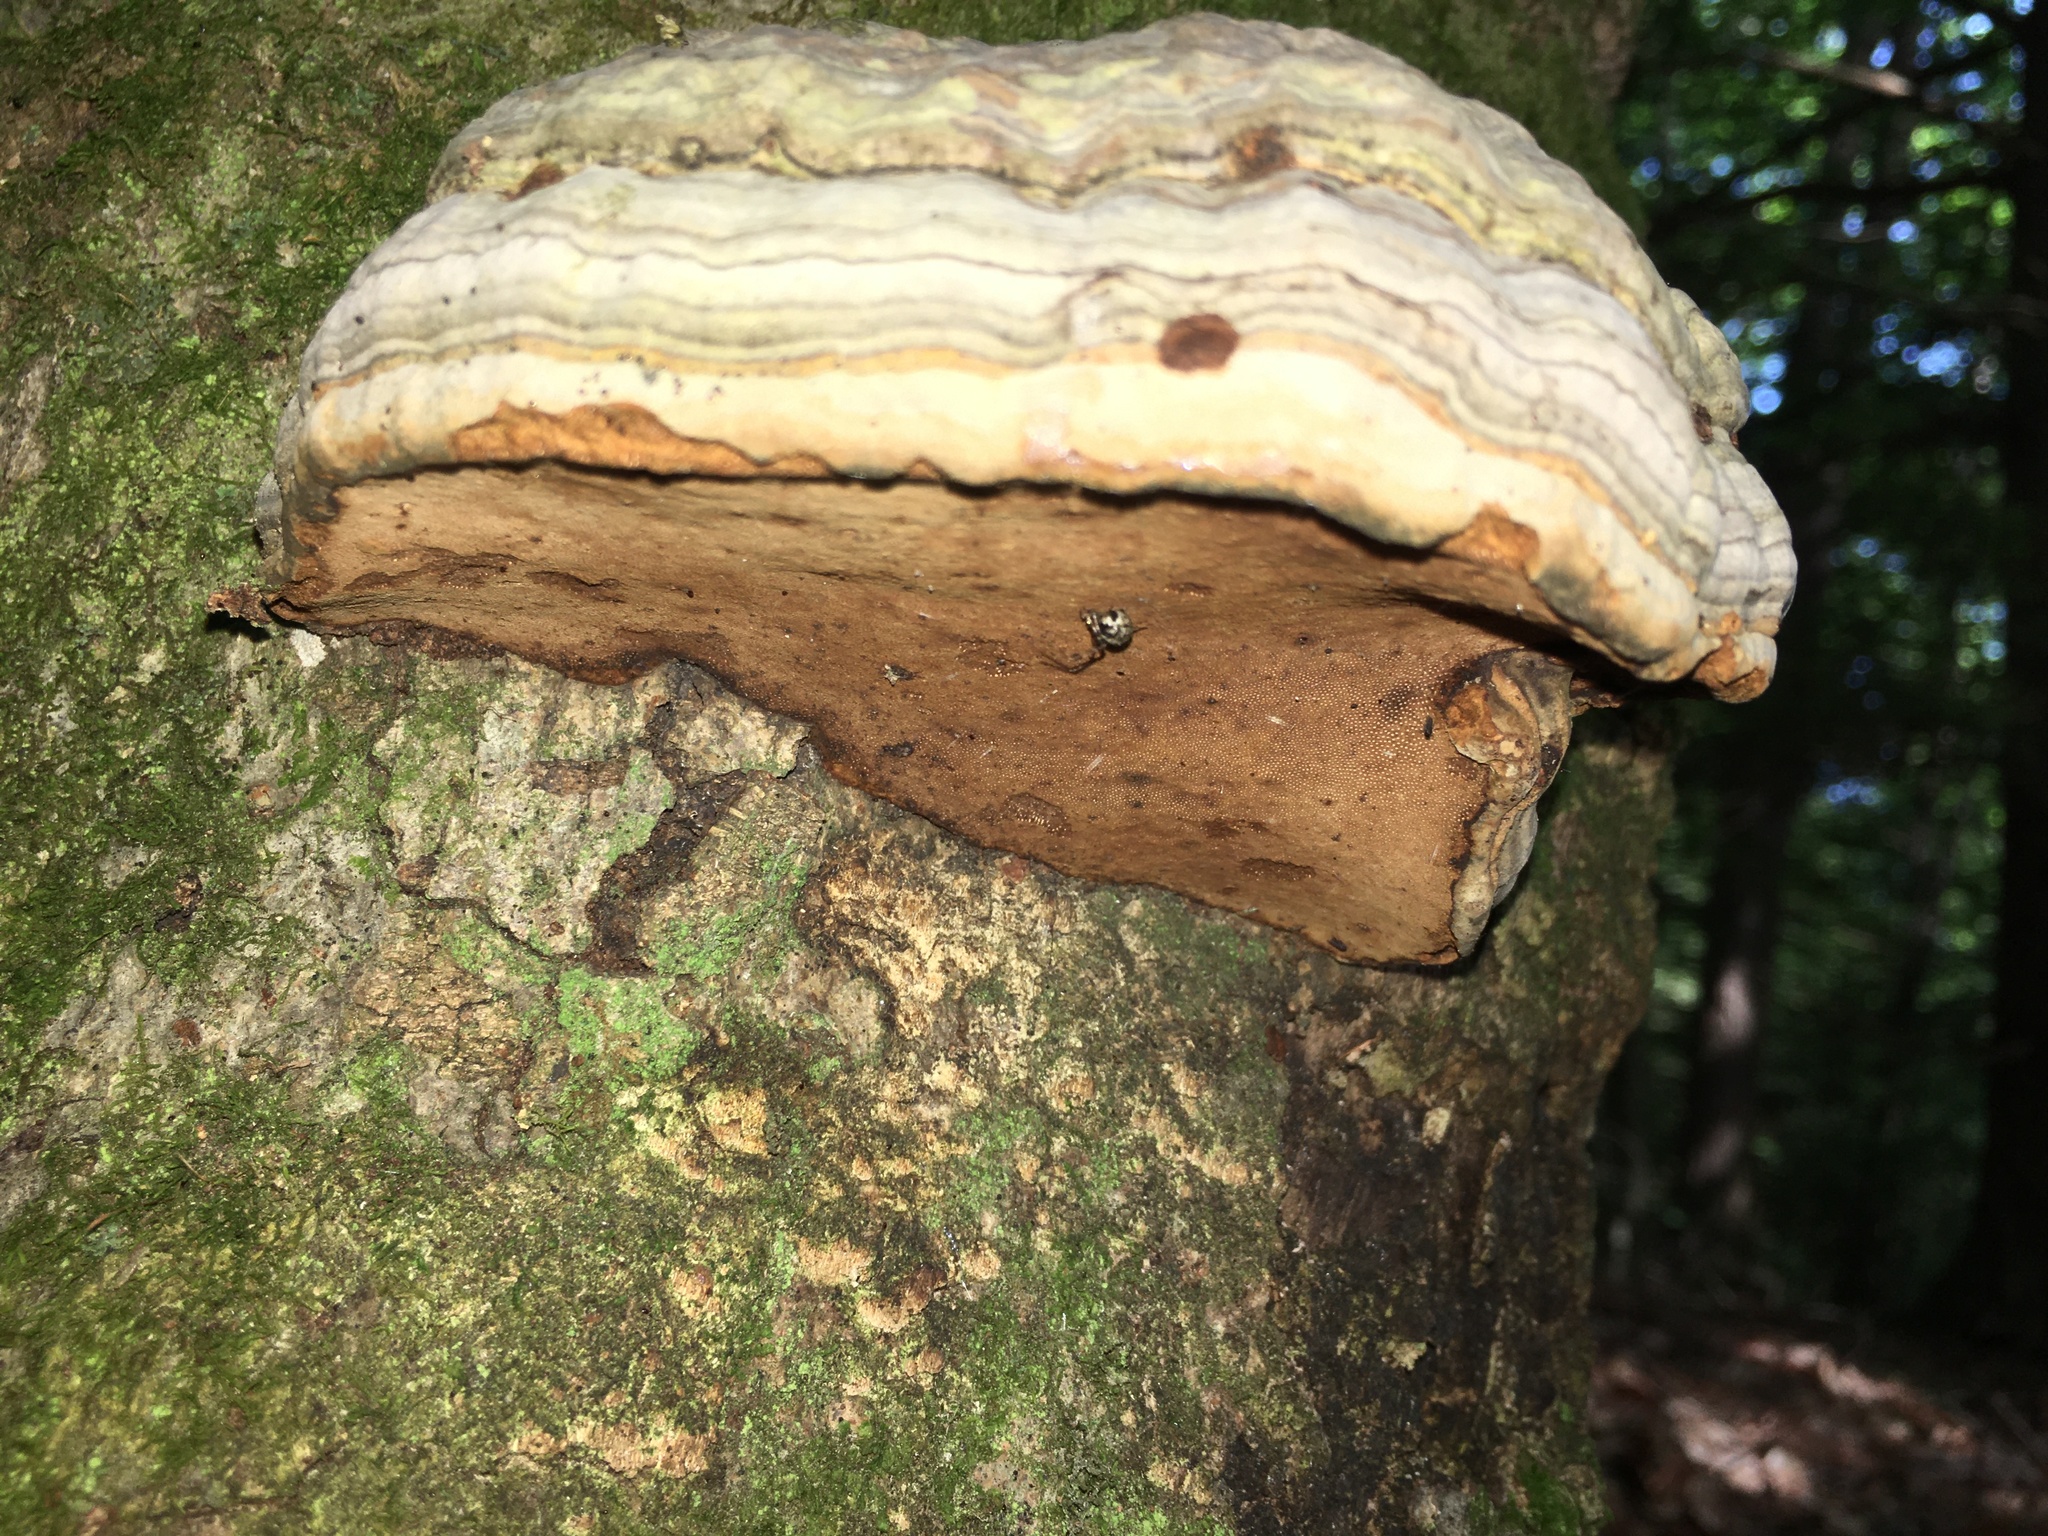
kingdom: Fungi
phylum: Basidiomycota
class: Agaricomycetes
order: Polyporales
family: Polyporaceae
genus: Fomes
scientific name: Fomes fomentarius
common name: Hoof fungus
